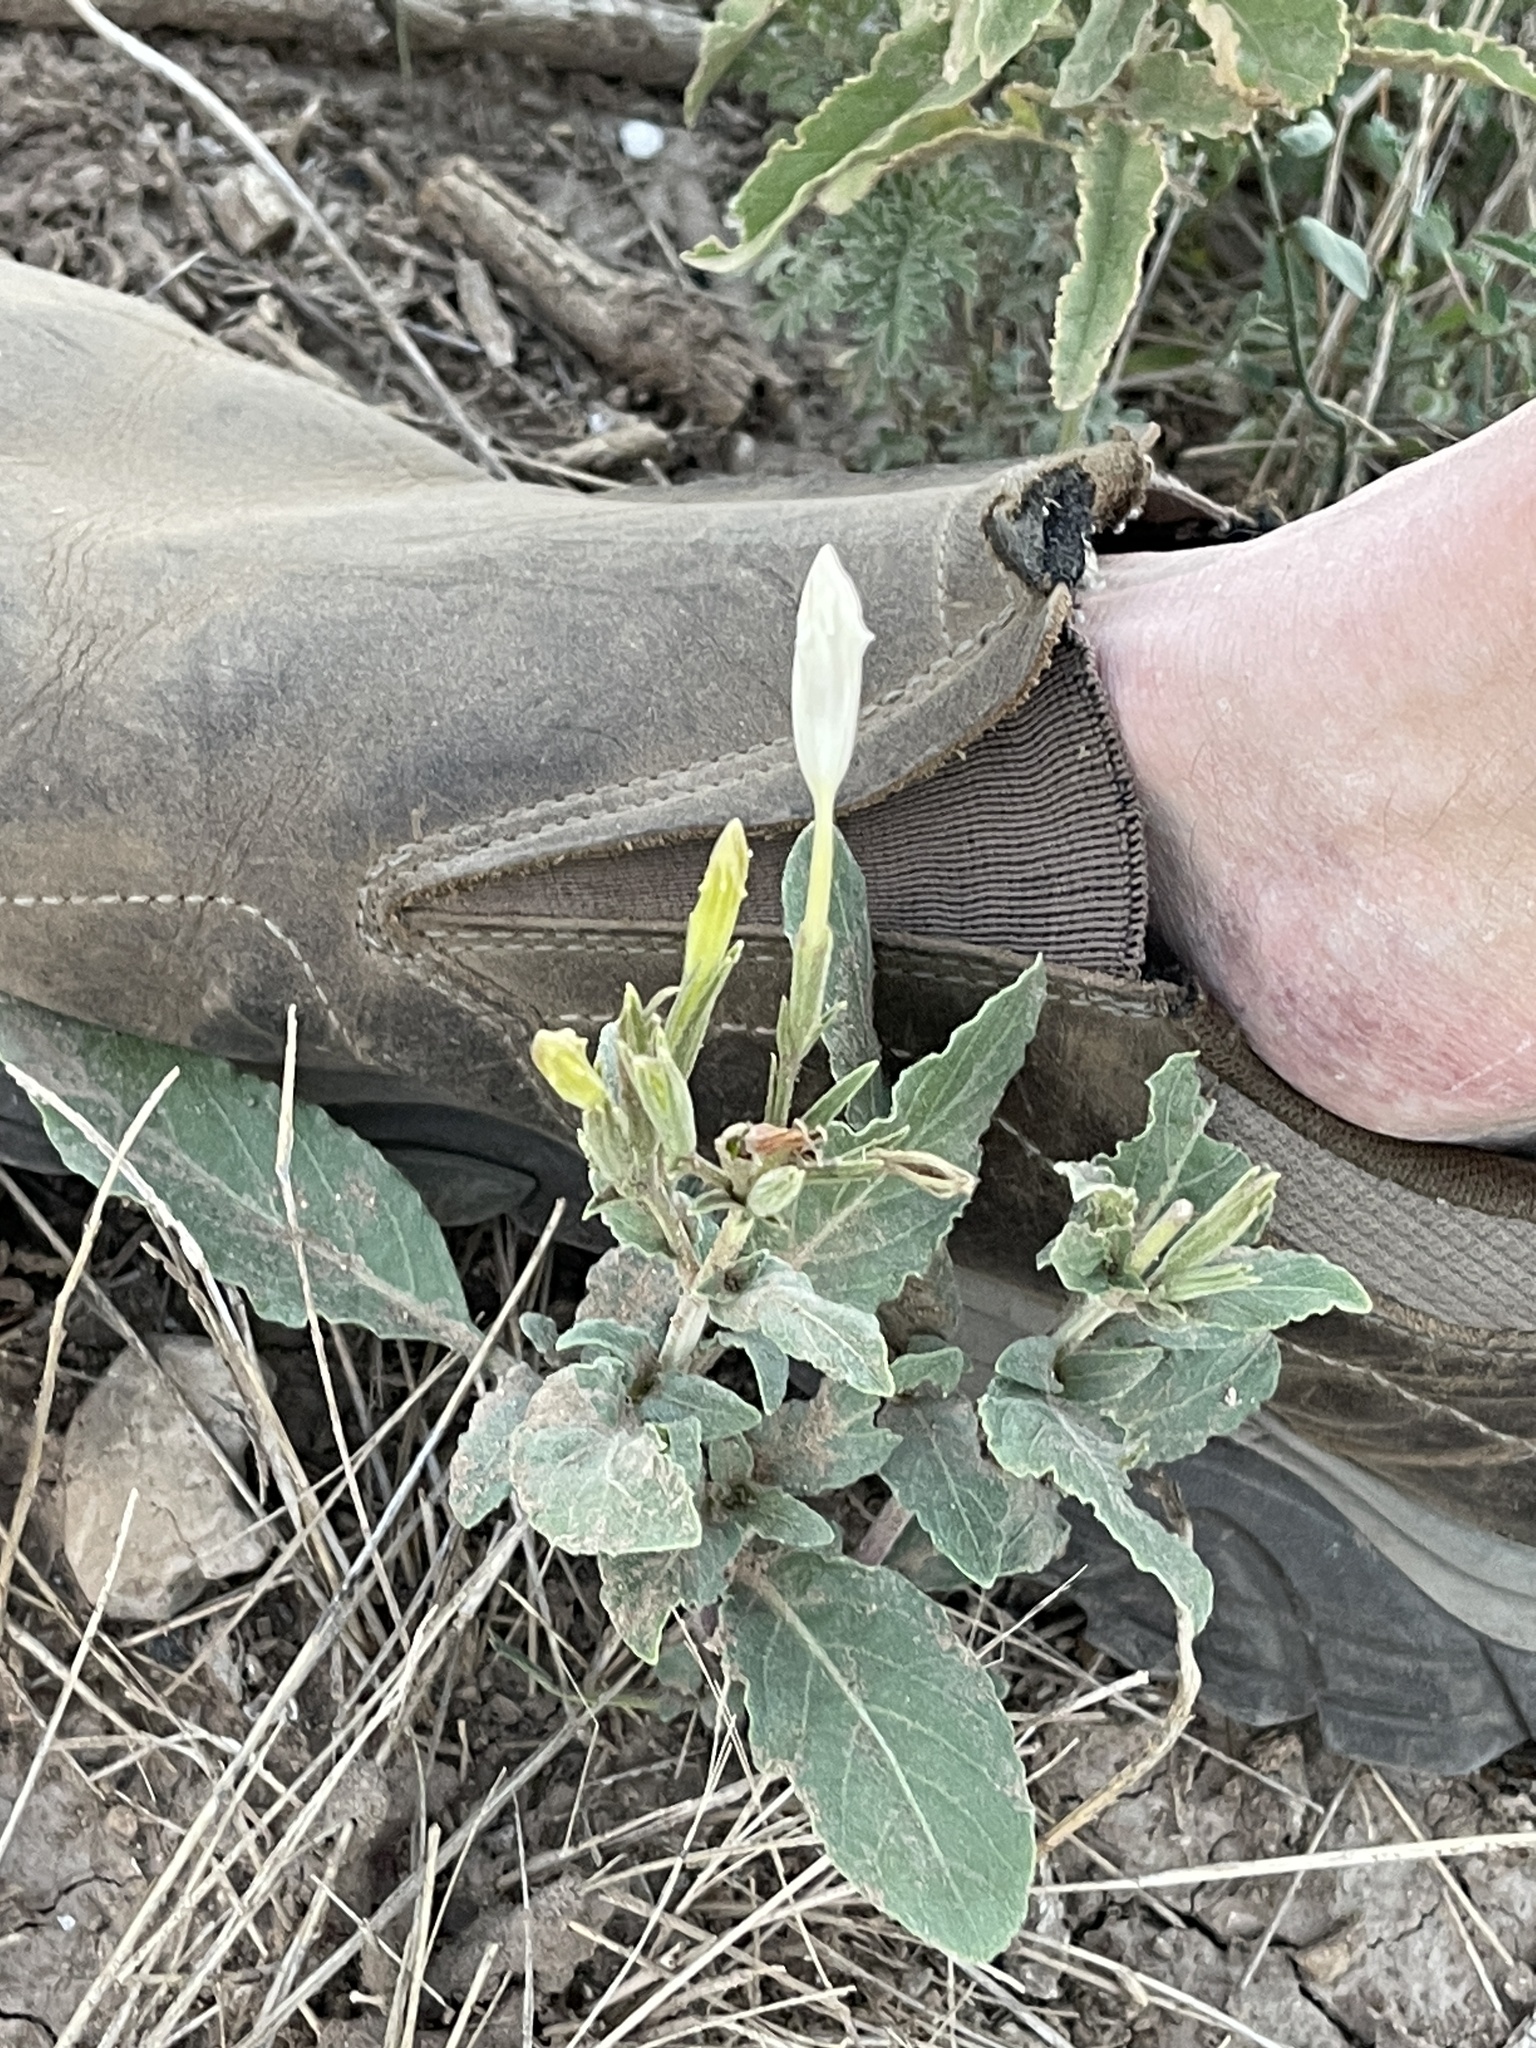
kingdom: Plantae
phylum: Tracheophyta
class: Magnoliopsida
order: Lamiales
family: Acanthaceae
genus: Ruellia
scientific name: Ruellia metziae
